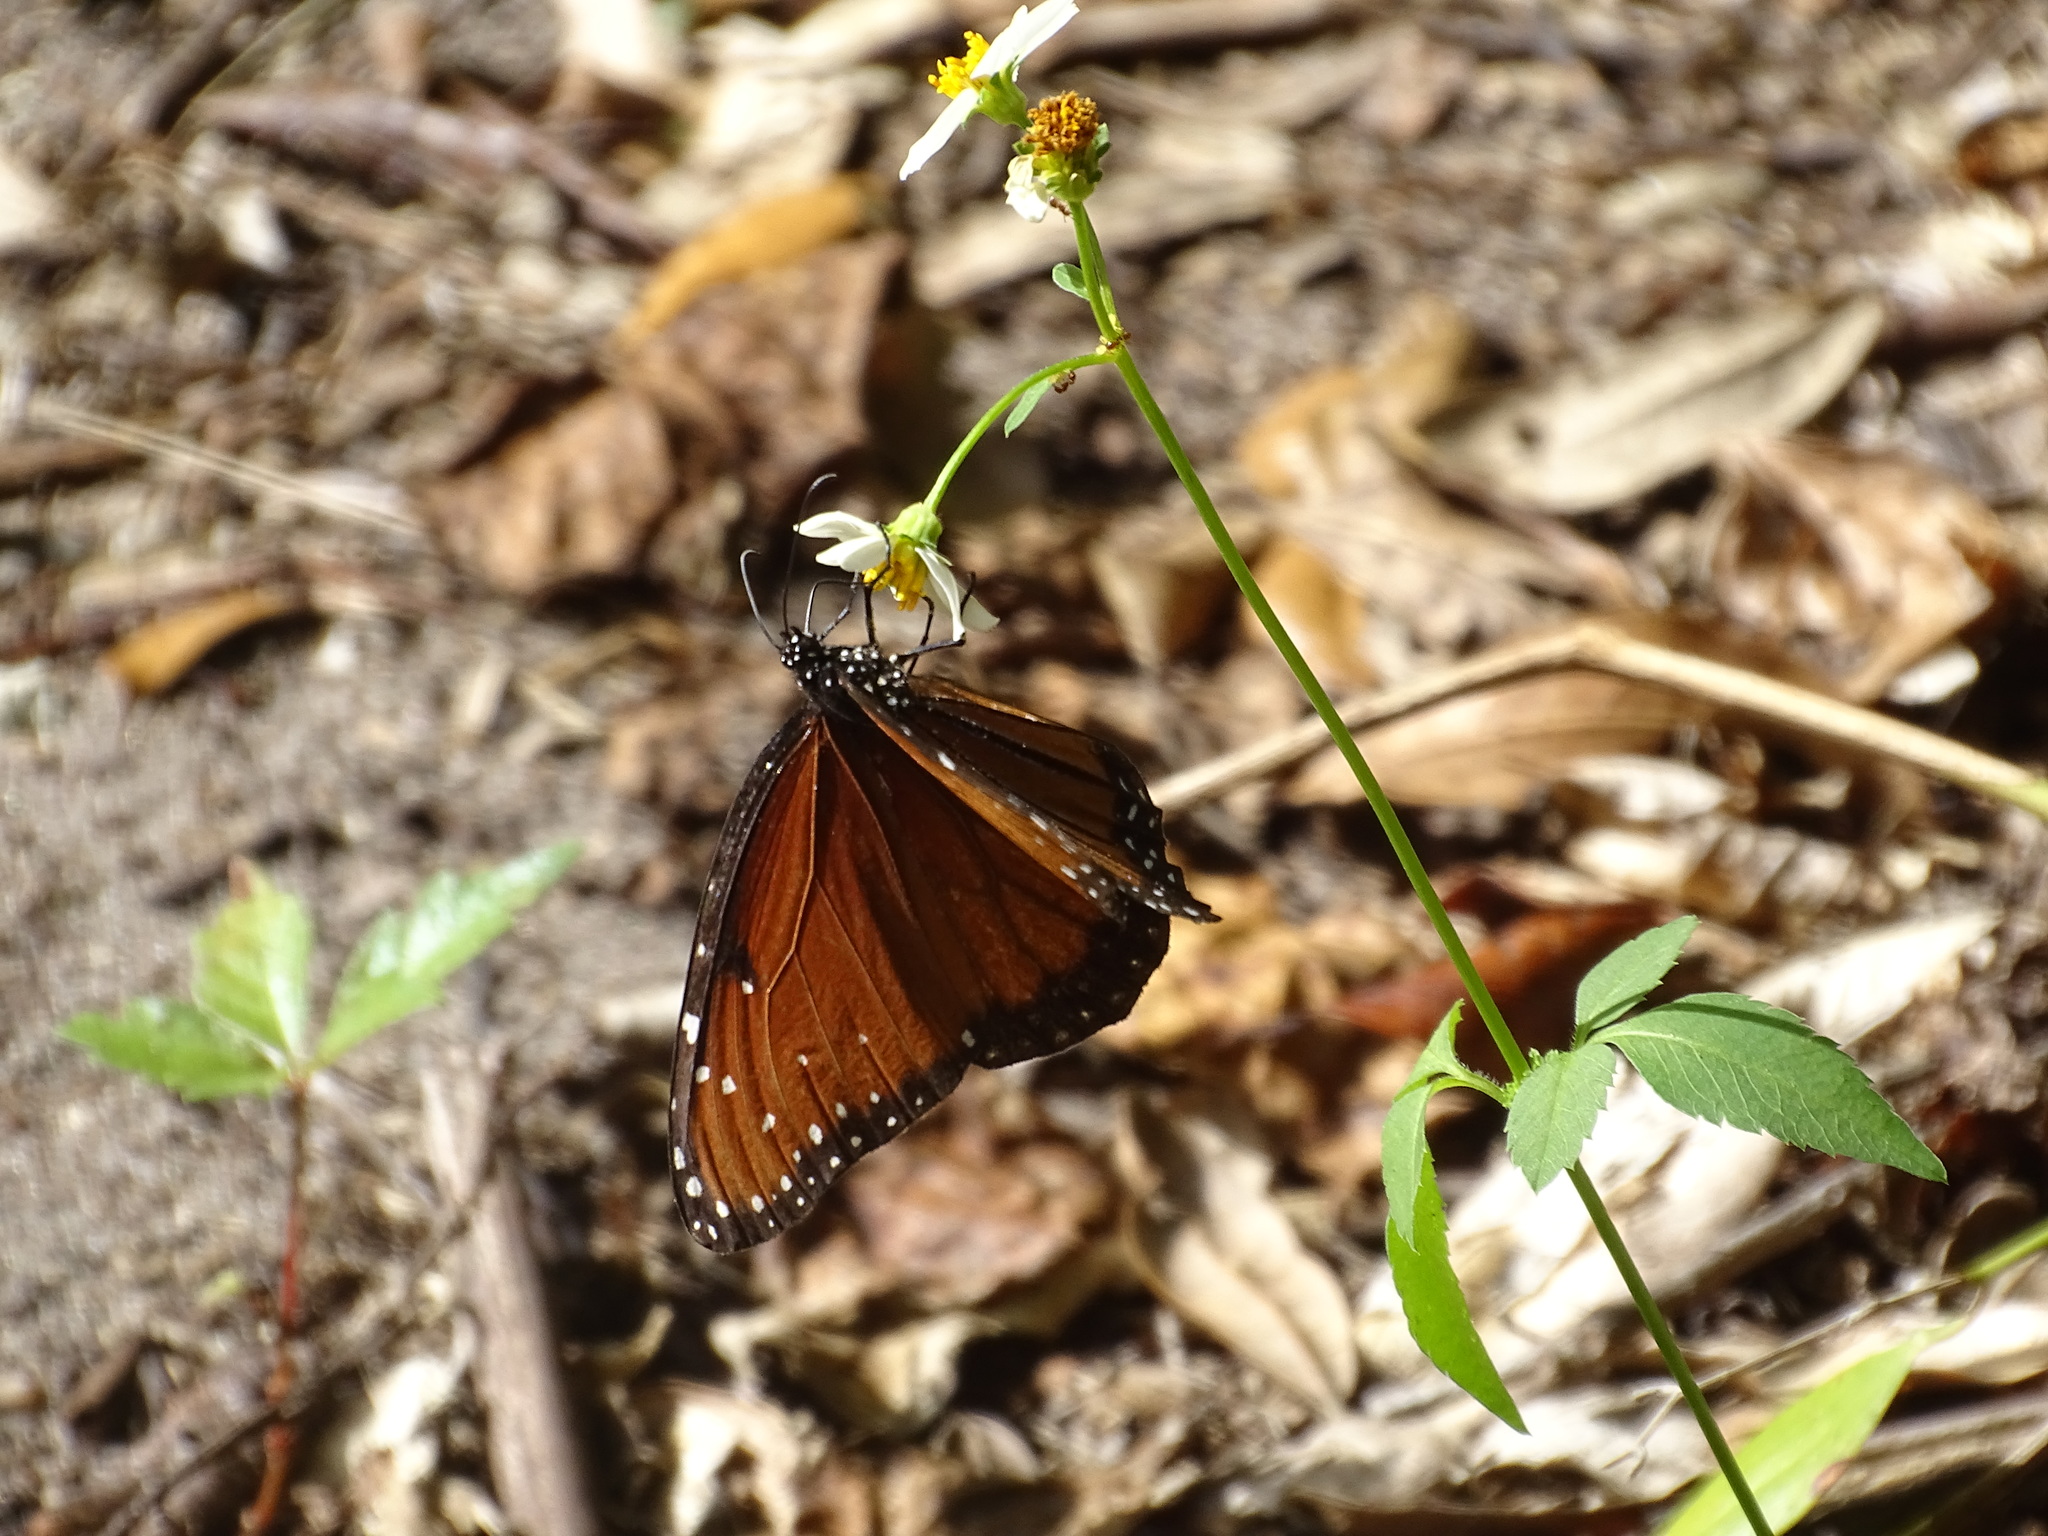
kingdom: Animalia
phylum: Arthropoda
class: Insecta
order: Lepidoptera
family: Nymphalidae
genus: Danaus
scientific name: Danaus gilippus
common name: Queen
